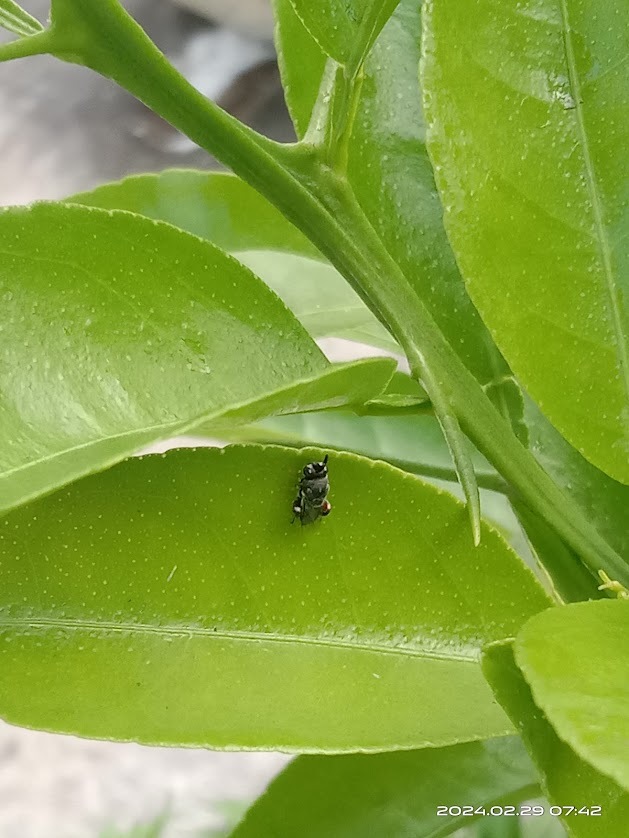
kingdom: Animalia
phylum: Arthropoda
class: Insecta
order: Hymenoptera
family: Chalcididae
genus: Brachymeria
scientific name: Brachymeria podagrica
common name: Chalcid wasp
